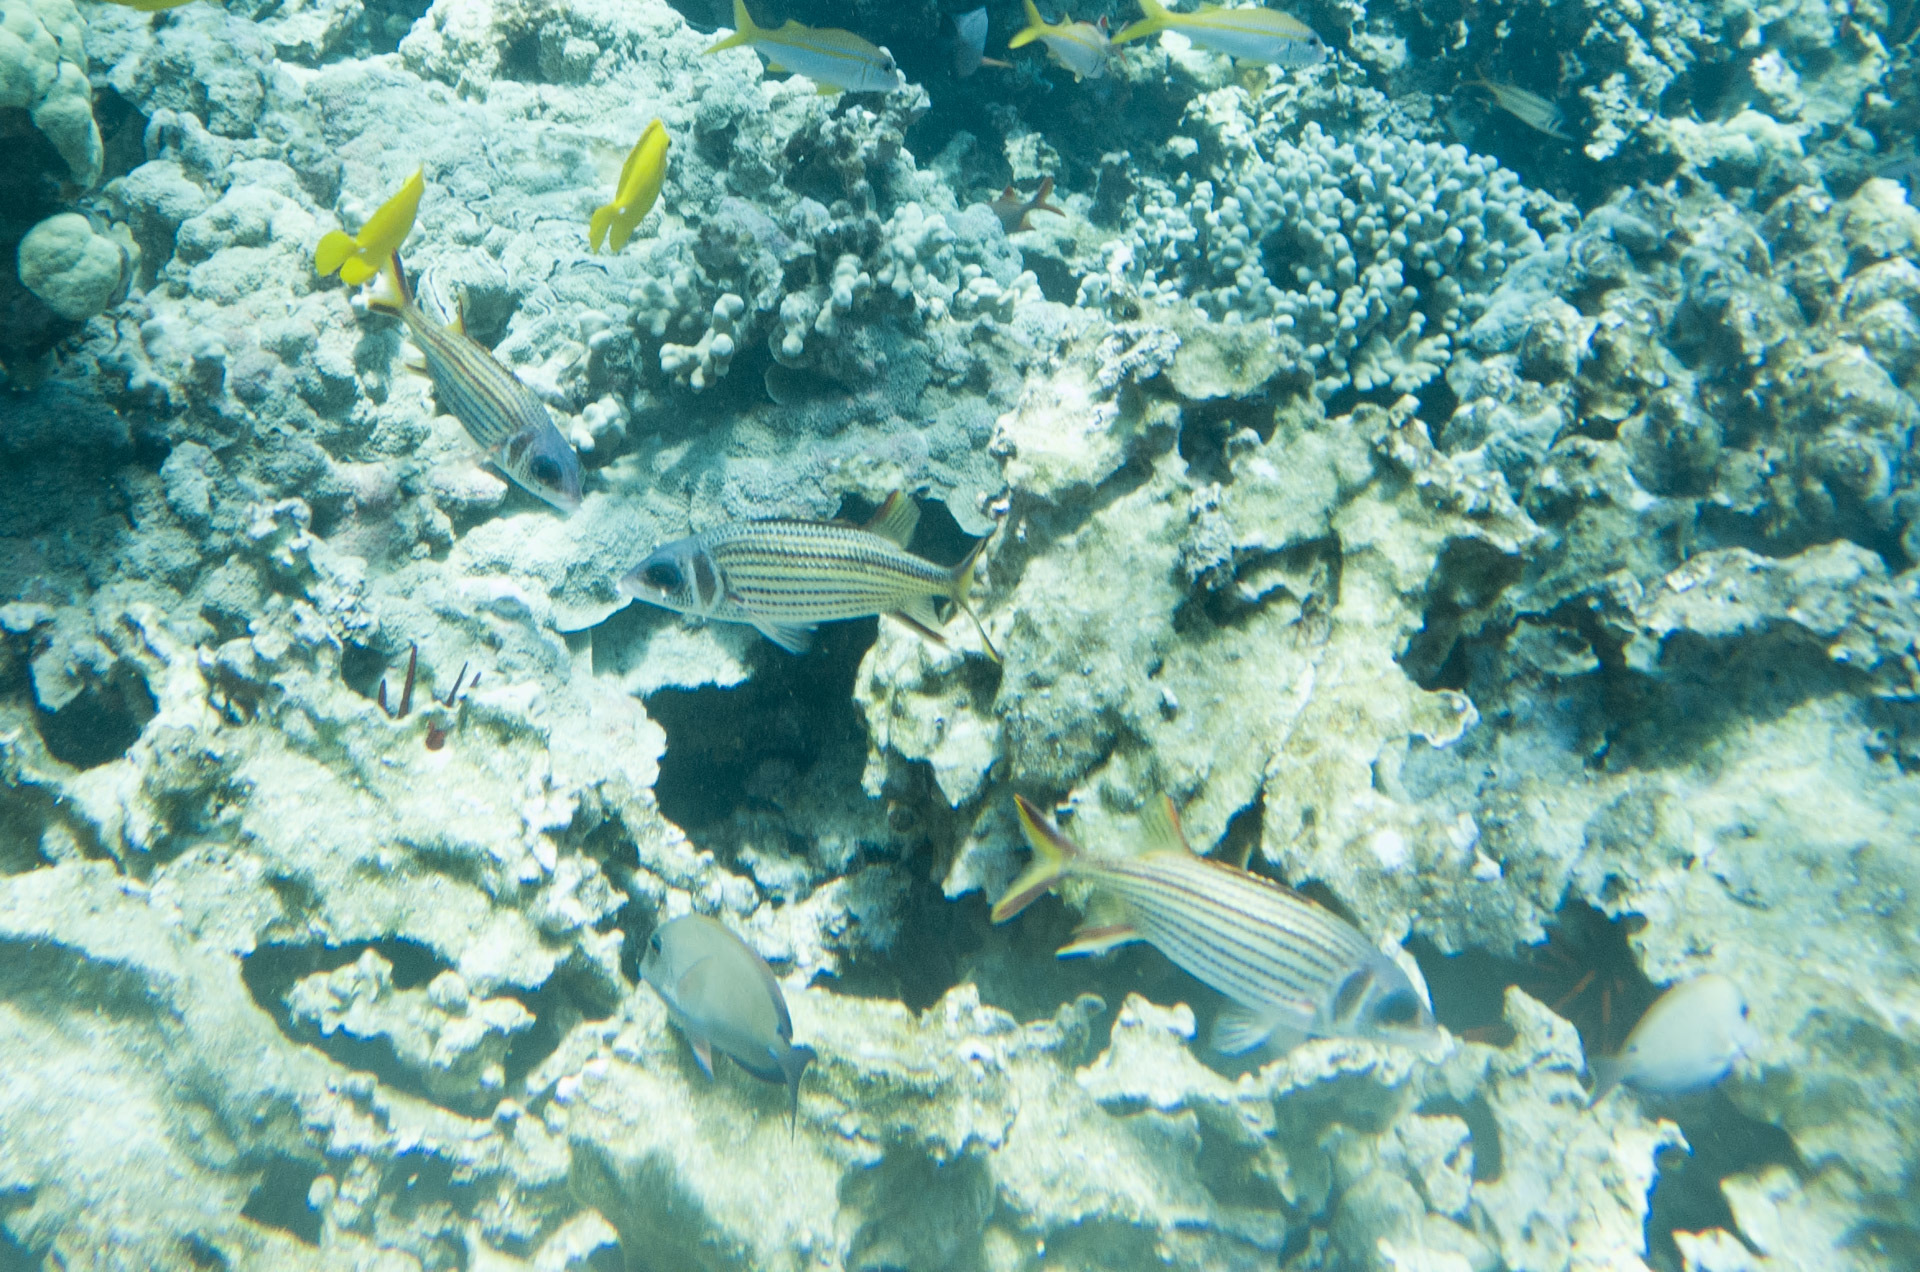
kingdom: Animalia
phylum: Chordata
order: Beryciformes
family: Holocentridae
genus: Neoniphon
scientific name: Neoniphon sammara
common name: Sammara squirrelfish
